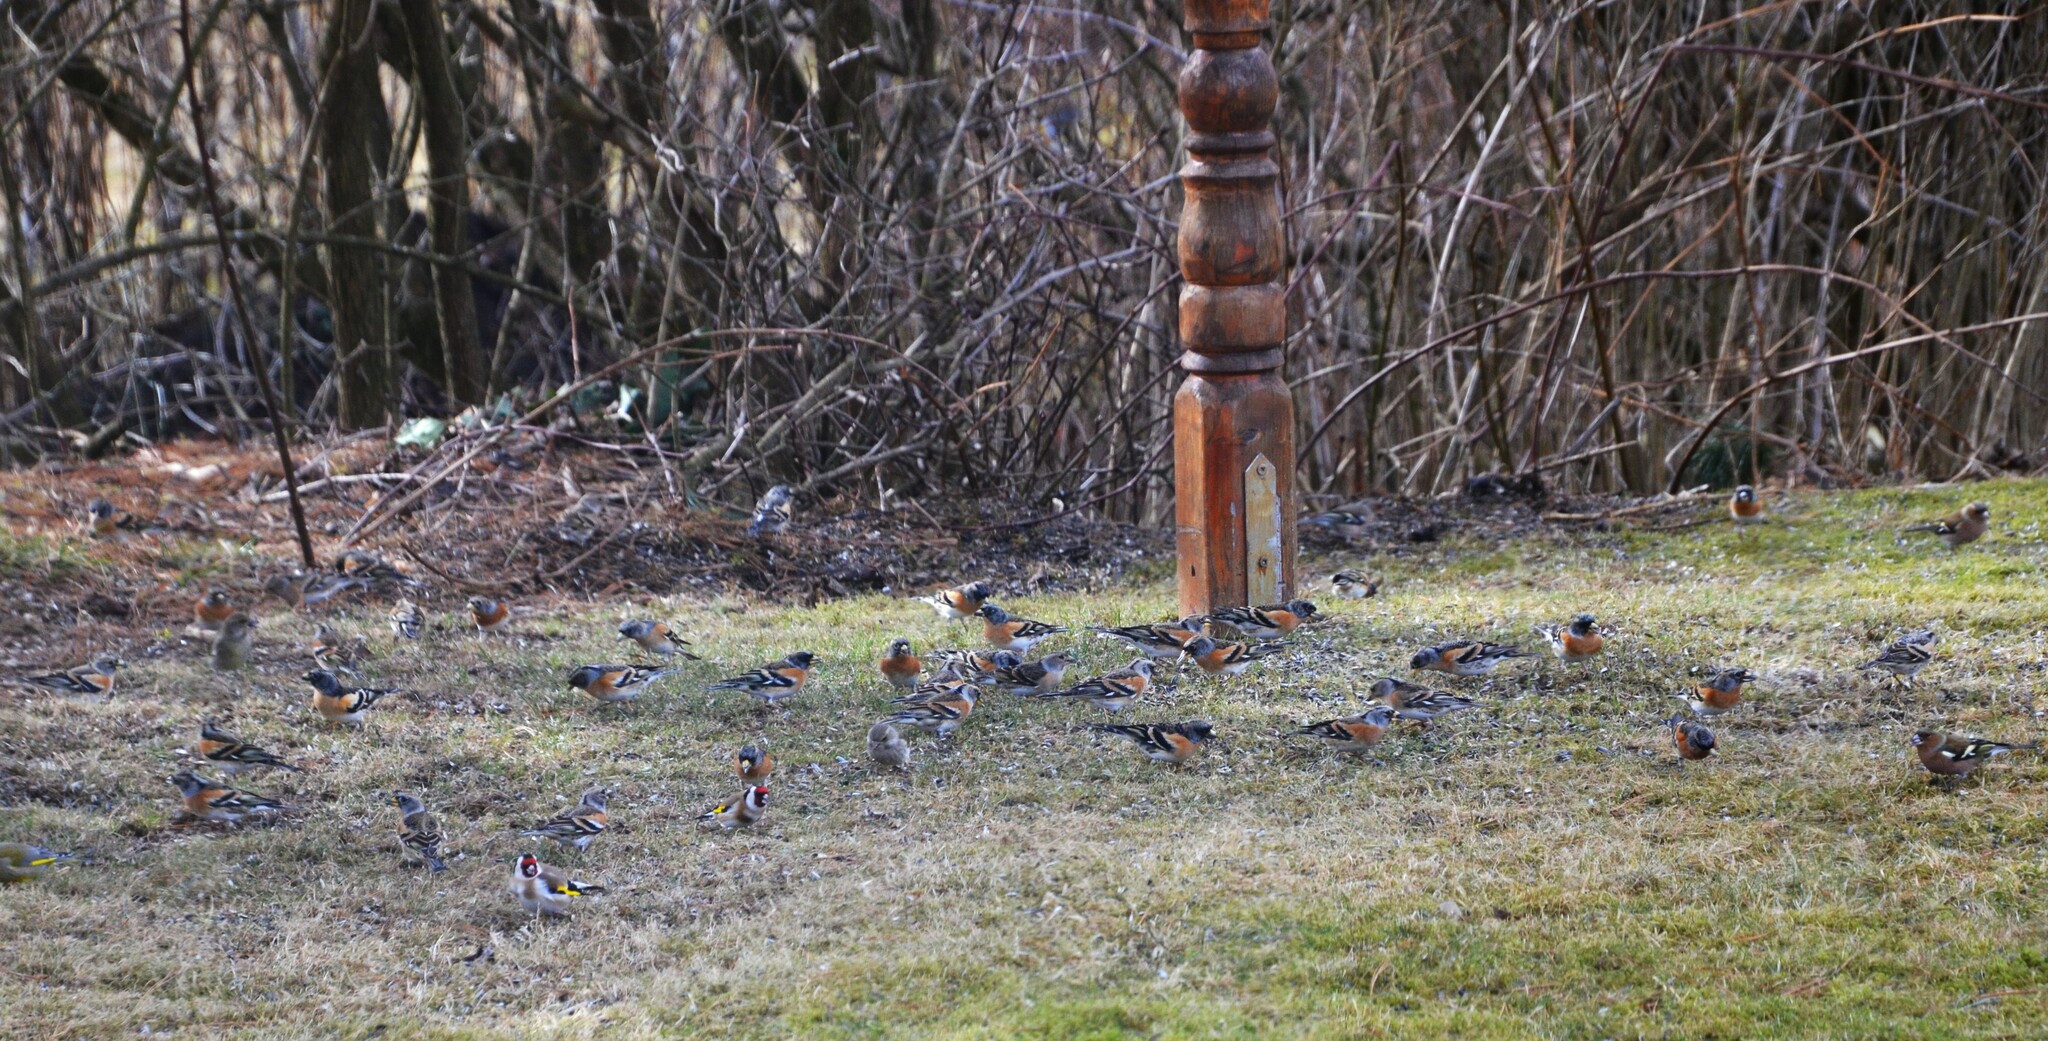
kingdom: Animalia
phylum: Chordata
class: Aves
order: Passeriformes
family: Fringillidae
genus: Fringilla
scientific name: Fringilla montifringilla
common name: Brambling
